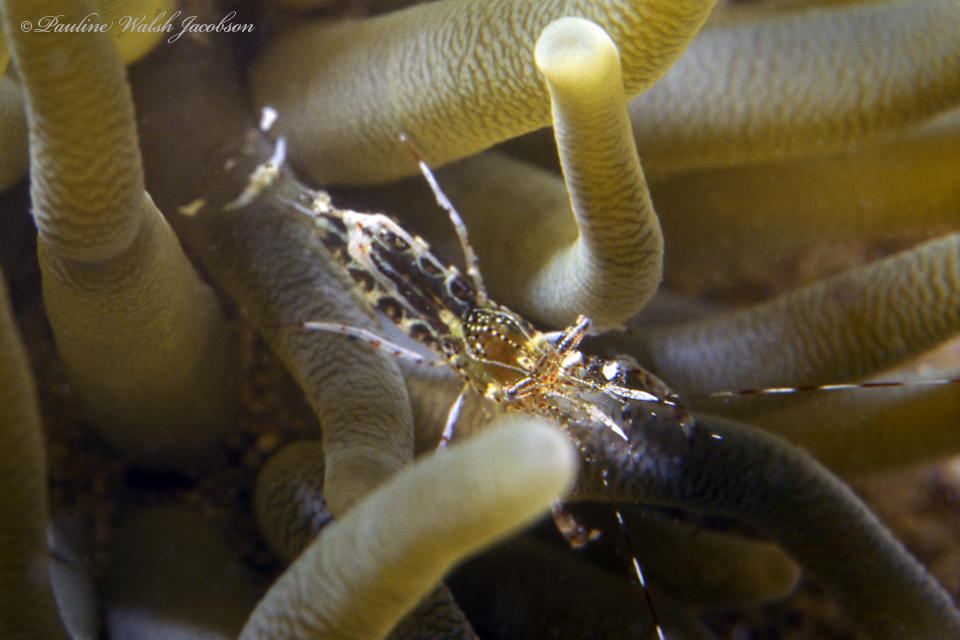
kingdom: Animalia
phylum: Arthropoda
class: Malacostraca
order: Decapoda
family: Palaemonidae
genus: Periclimenes
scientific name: Periclimenes rathbunae
